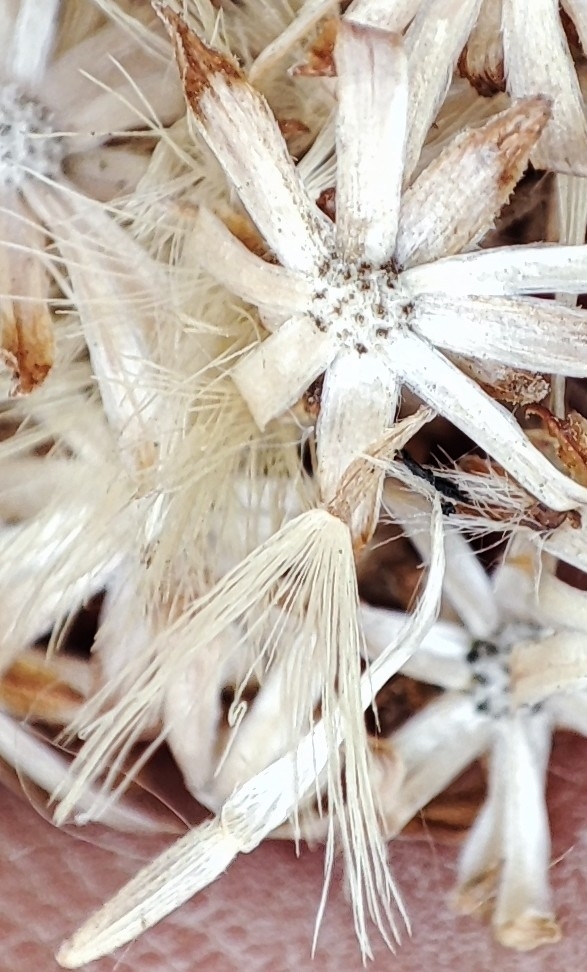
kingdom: Plantae
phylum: Tracheophyta
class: Magnoliopsida
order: Asterales
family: Asteraceae
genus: Solidago
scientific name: Solidago virgaurea
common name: Goldenrod
